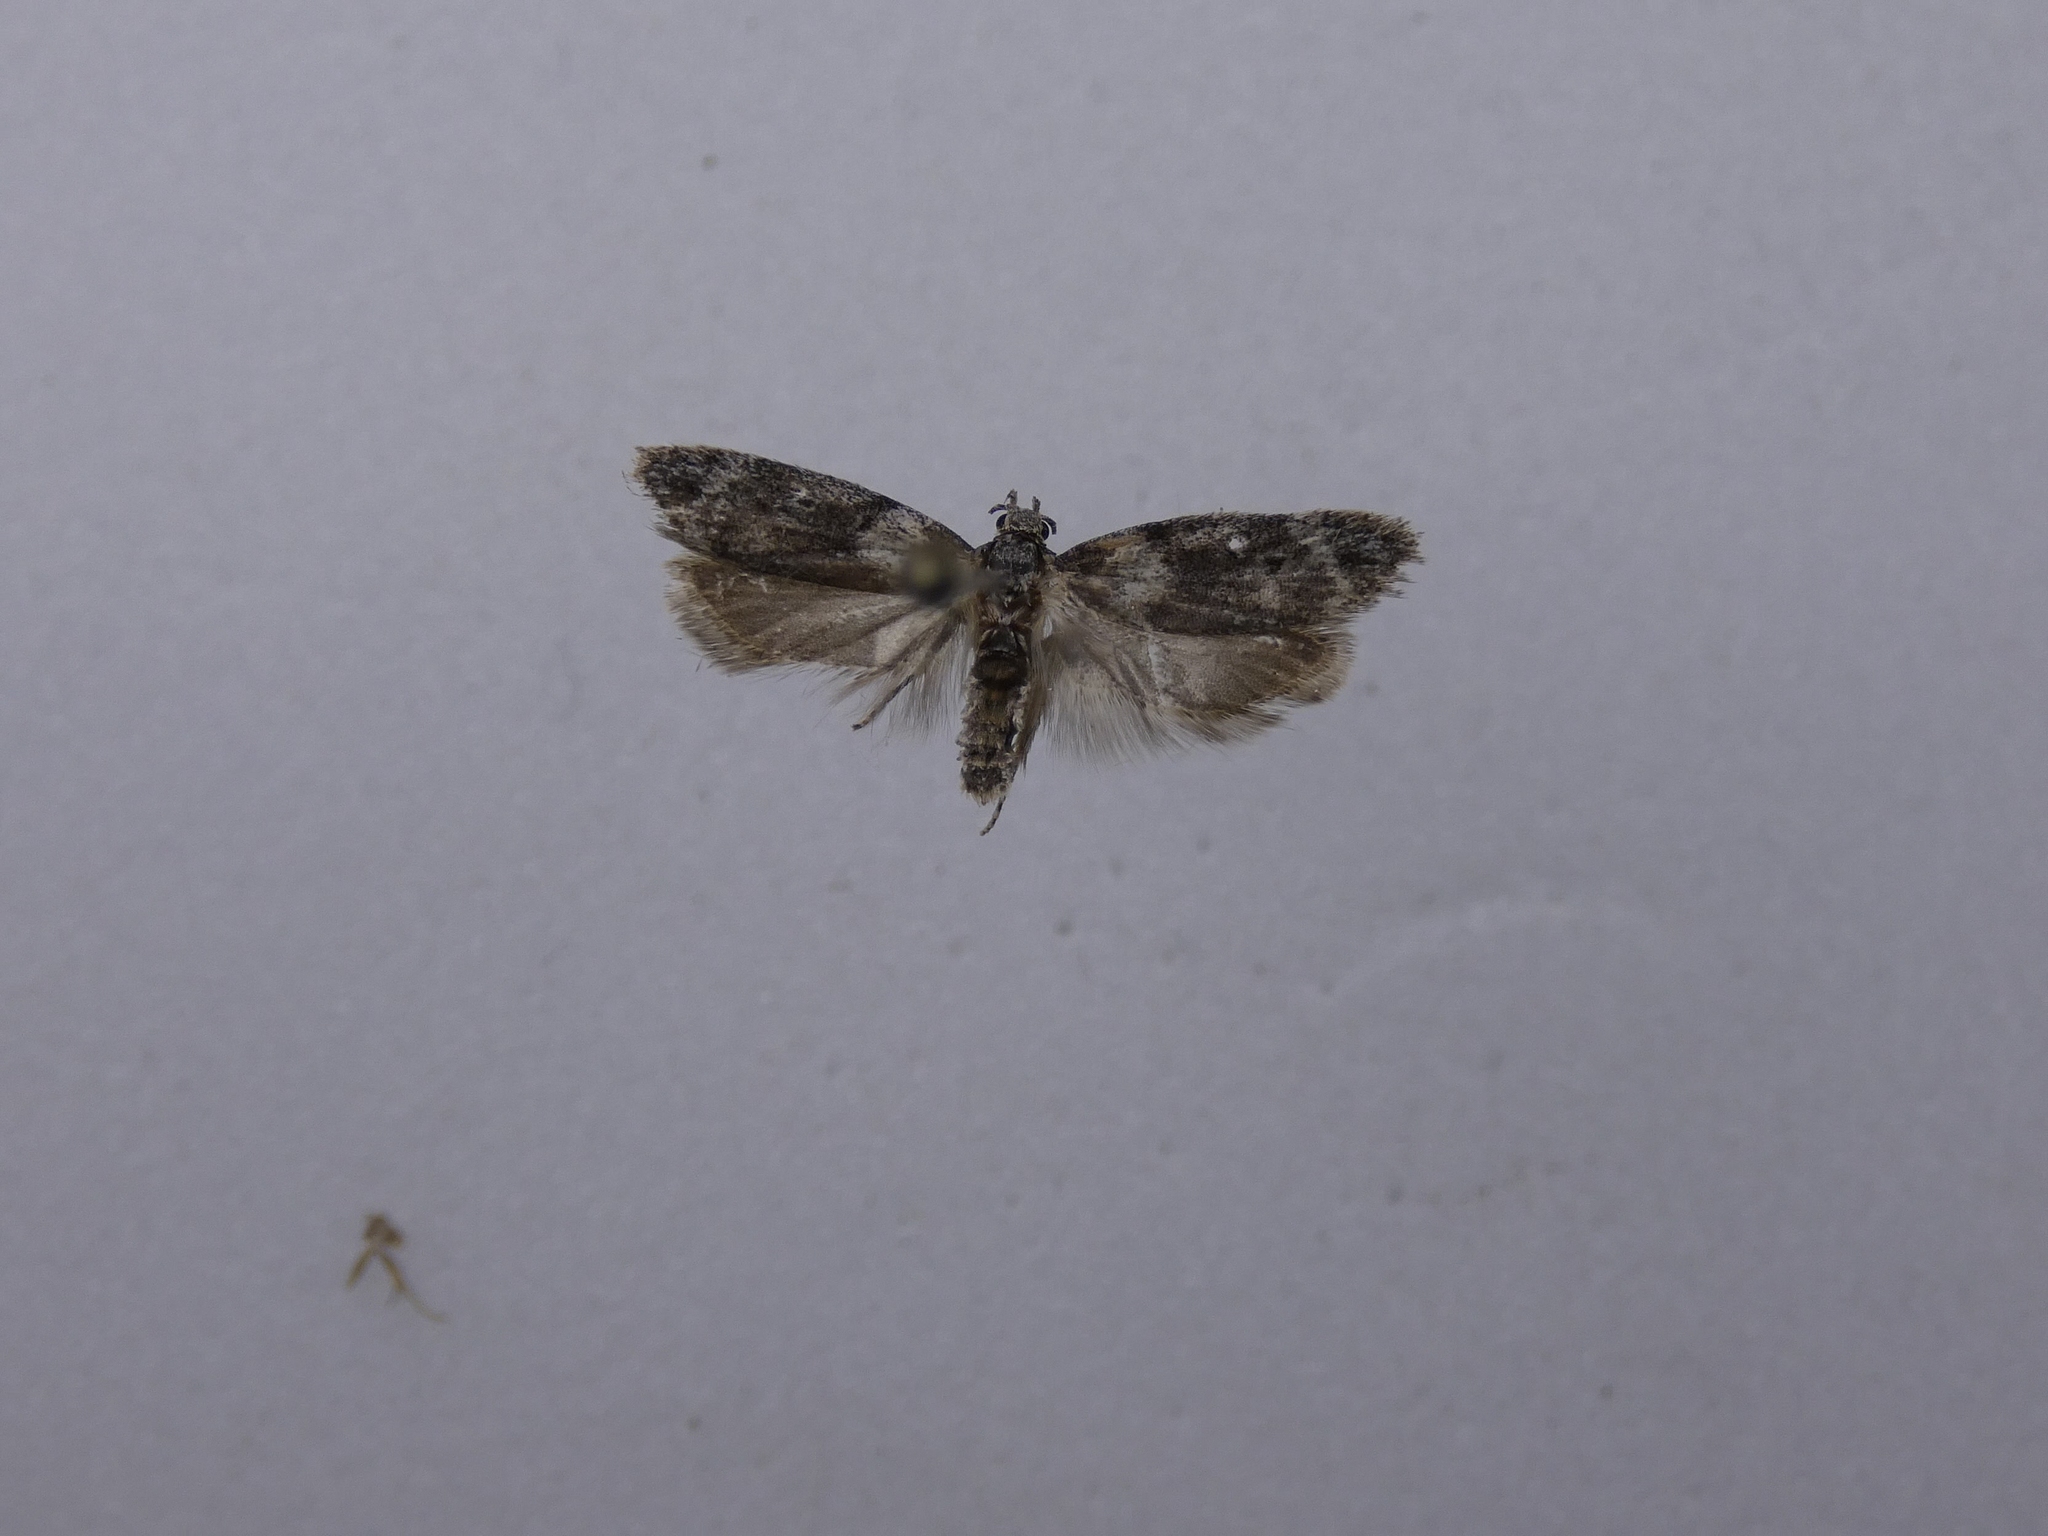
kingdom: Animalia
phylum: Arthropoda
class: Insecta
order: Lepidoptera
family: Oecophoridae
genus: Izatha
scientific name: Izatha convulsella
